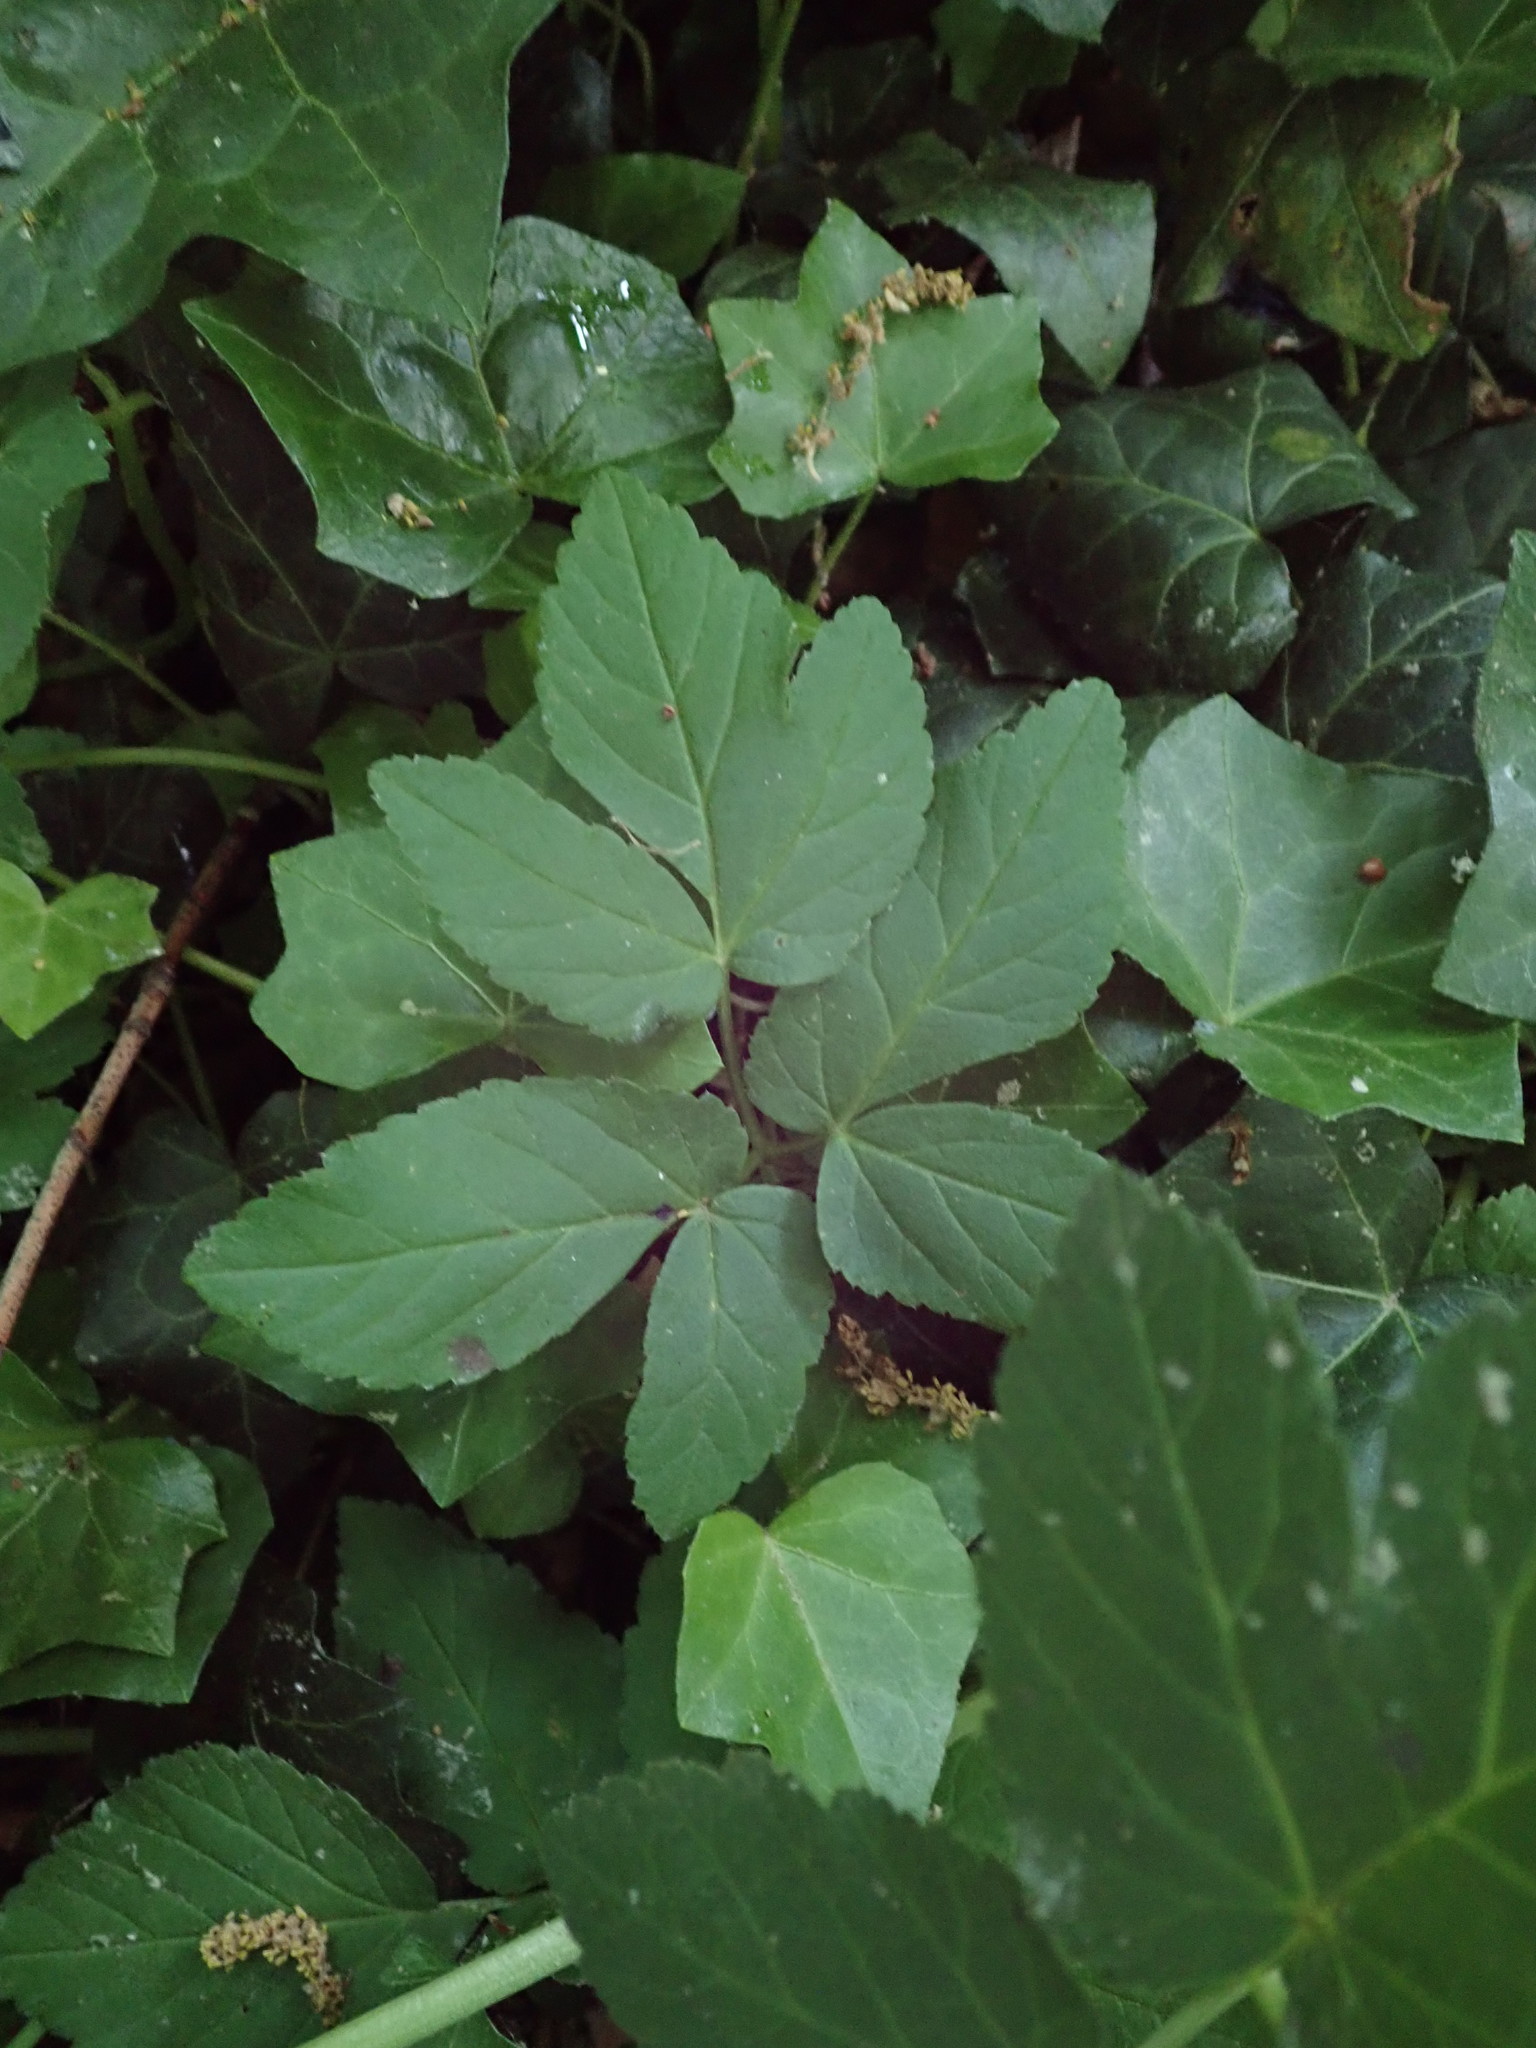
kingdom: Plantae
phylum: Tracheophyta
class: Magnoliopsida
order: Apiales
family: Apiaceae
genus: Aegopodium
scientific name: Aegopodium podagraria
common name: Ground-elder
